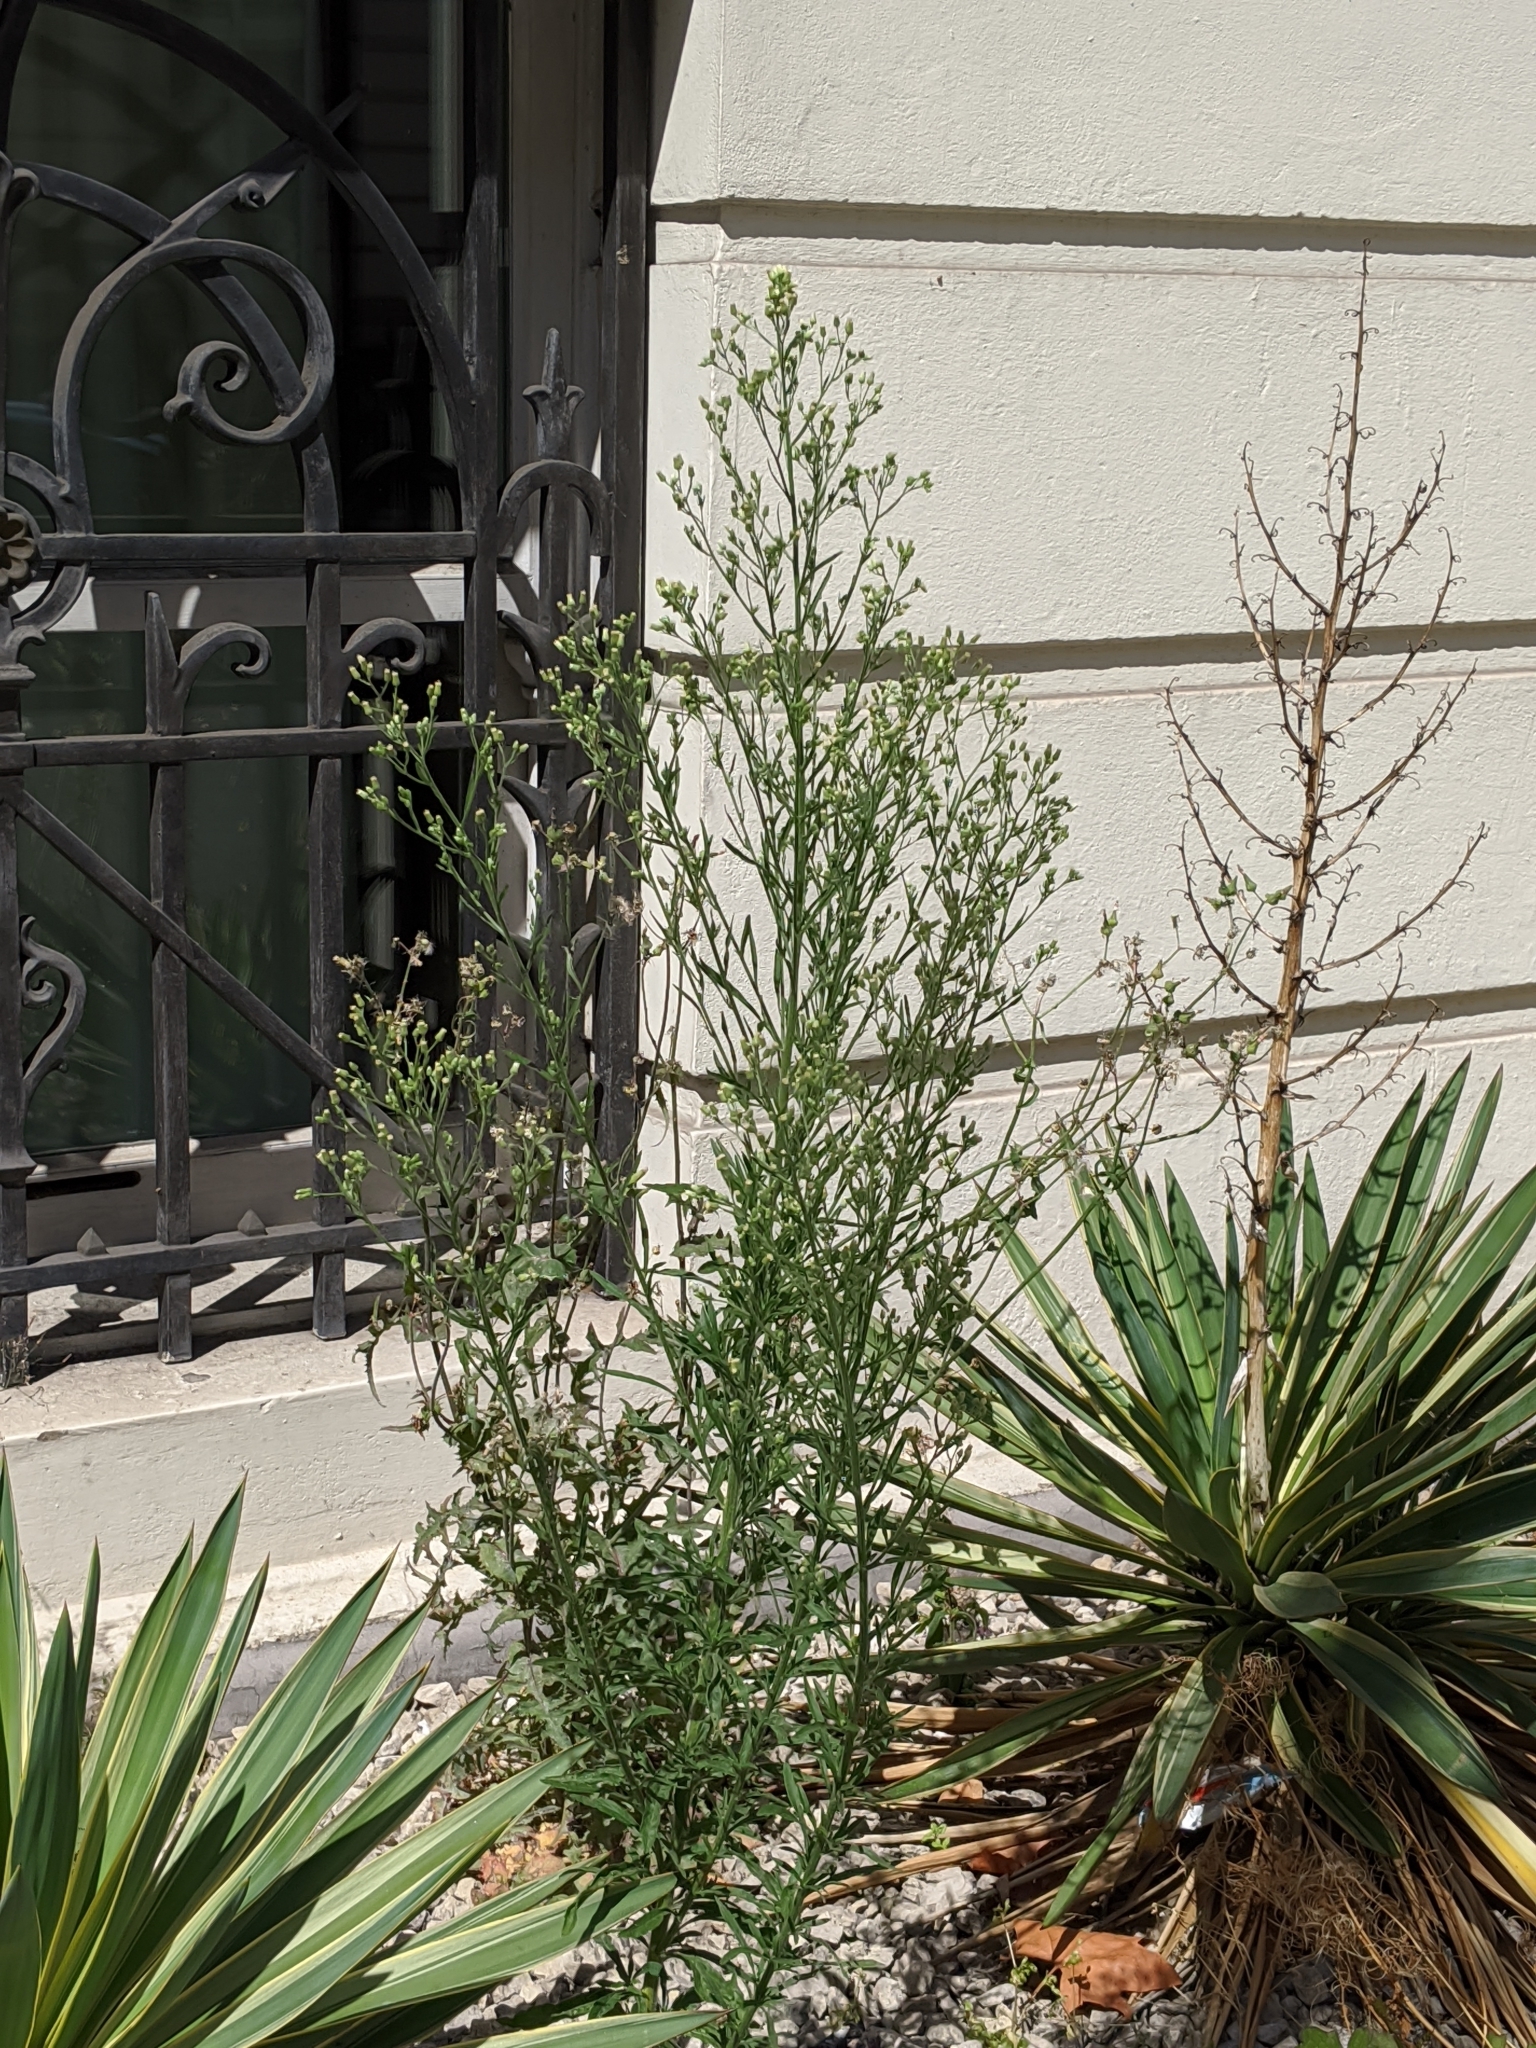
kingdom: Plantae
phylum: Tracheophyta
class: Magnoliopsida
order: Asterales
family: Asteraceae
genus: Erigeron
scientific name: Erigeron sumatrensis
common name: Daisy
